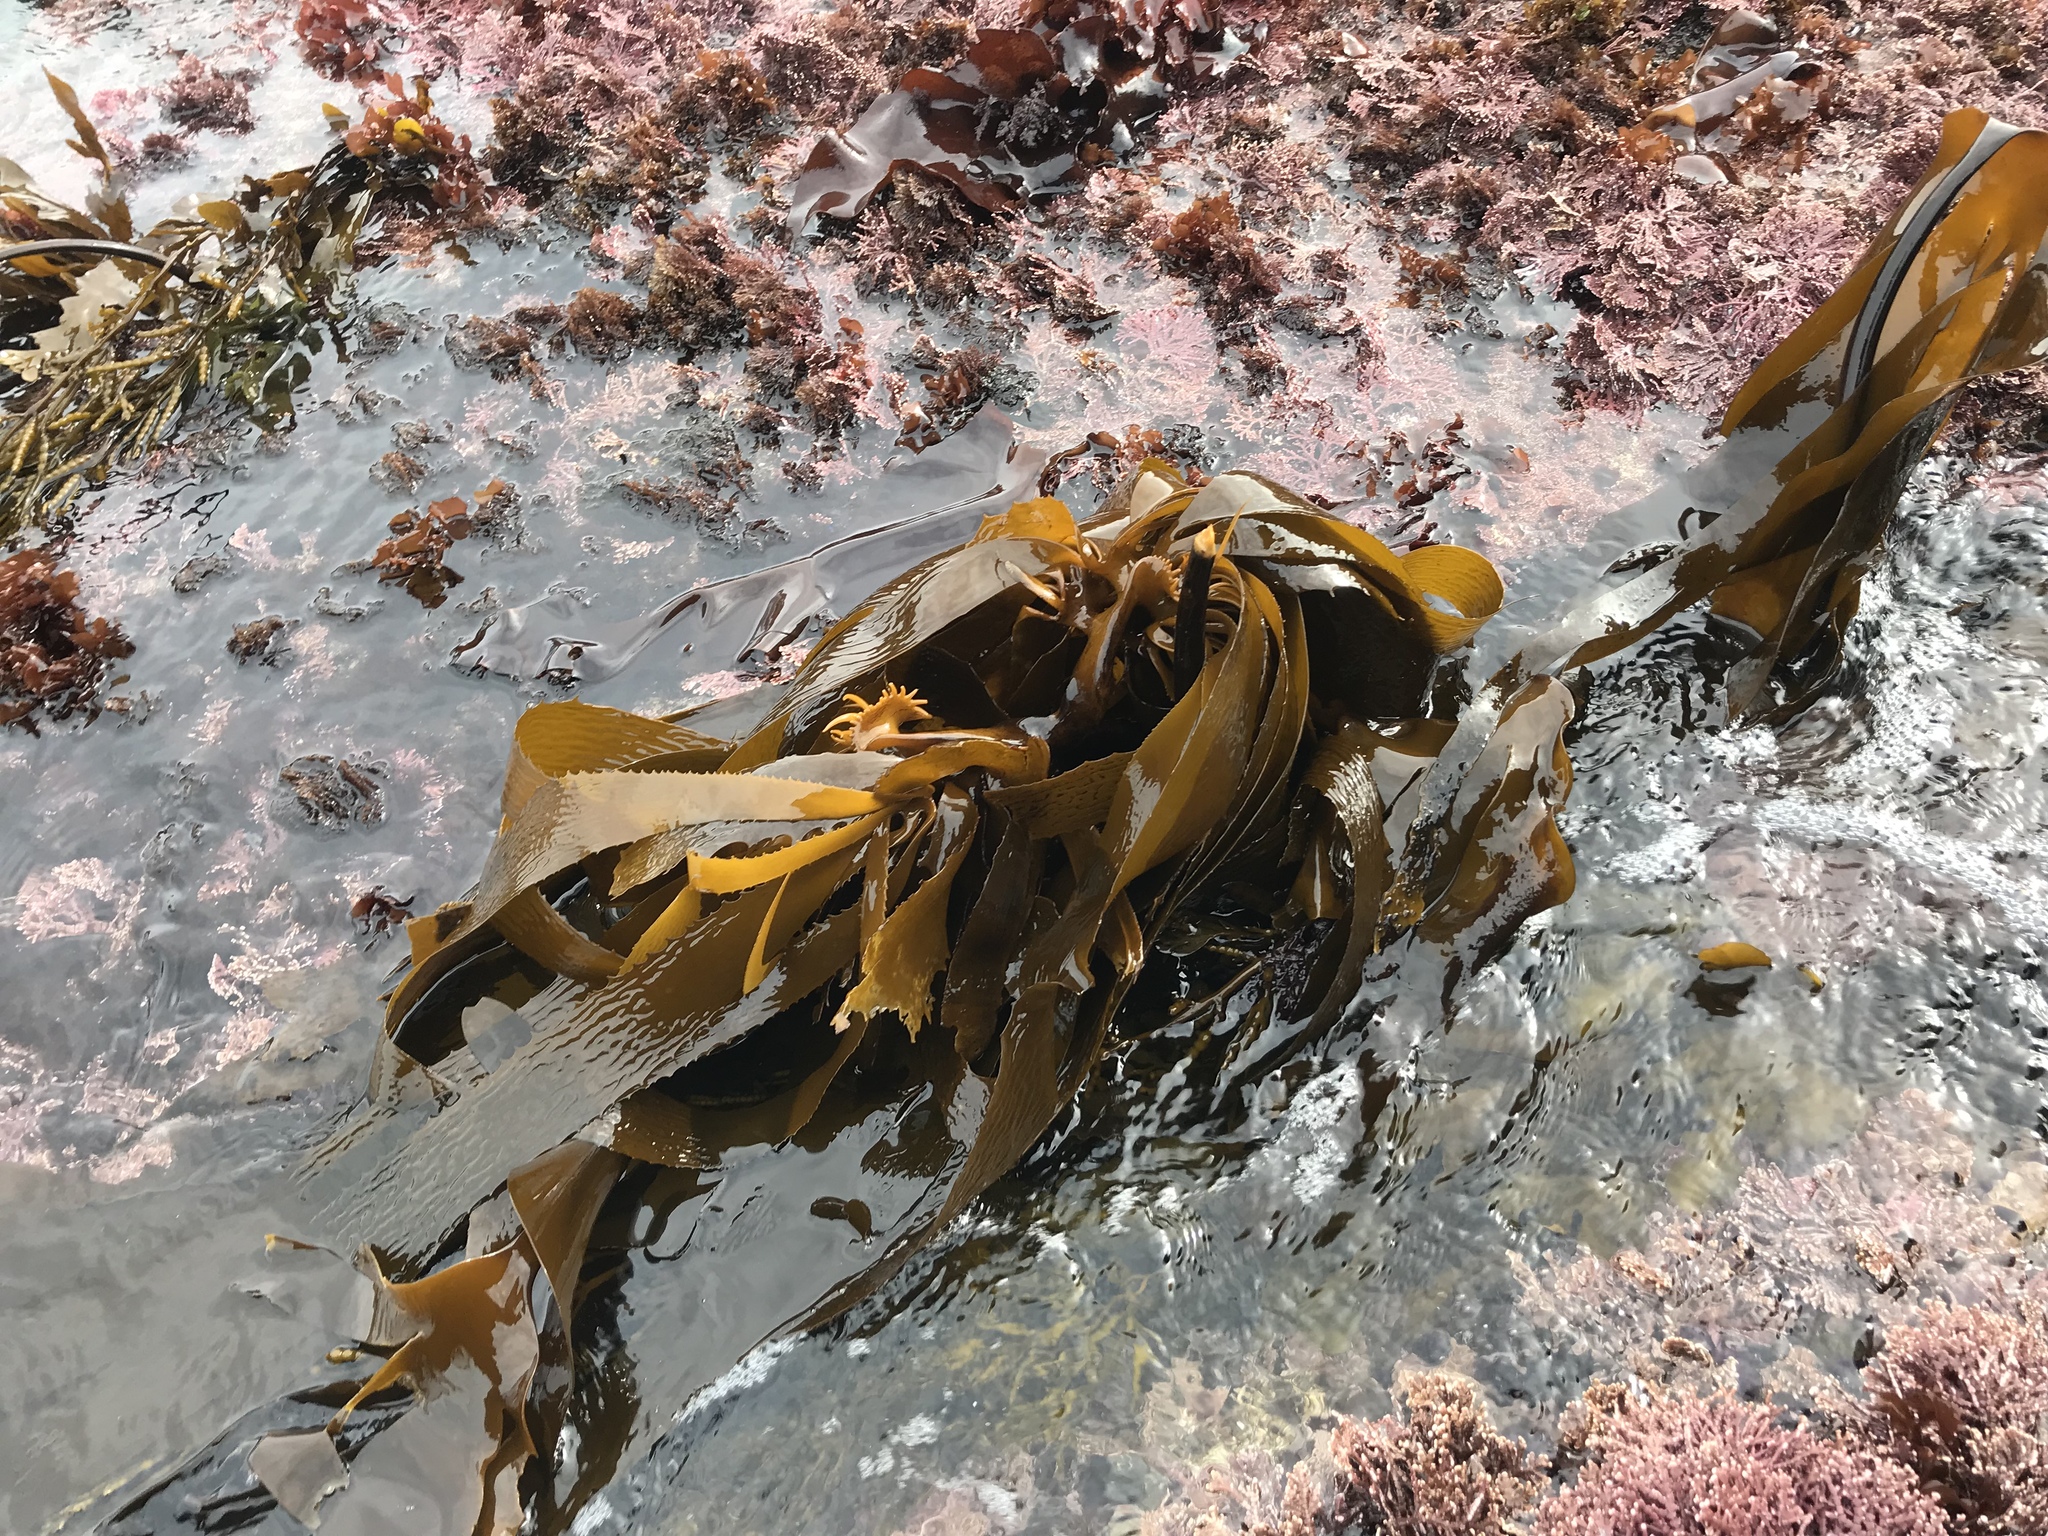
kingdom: Chromista
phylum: Ochrophyta
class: Phaeophyceae
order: Laminariales
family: Lessoniaceae
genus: Eisenia
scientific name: Eisenia arborea
